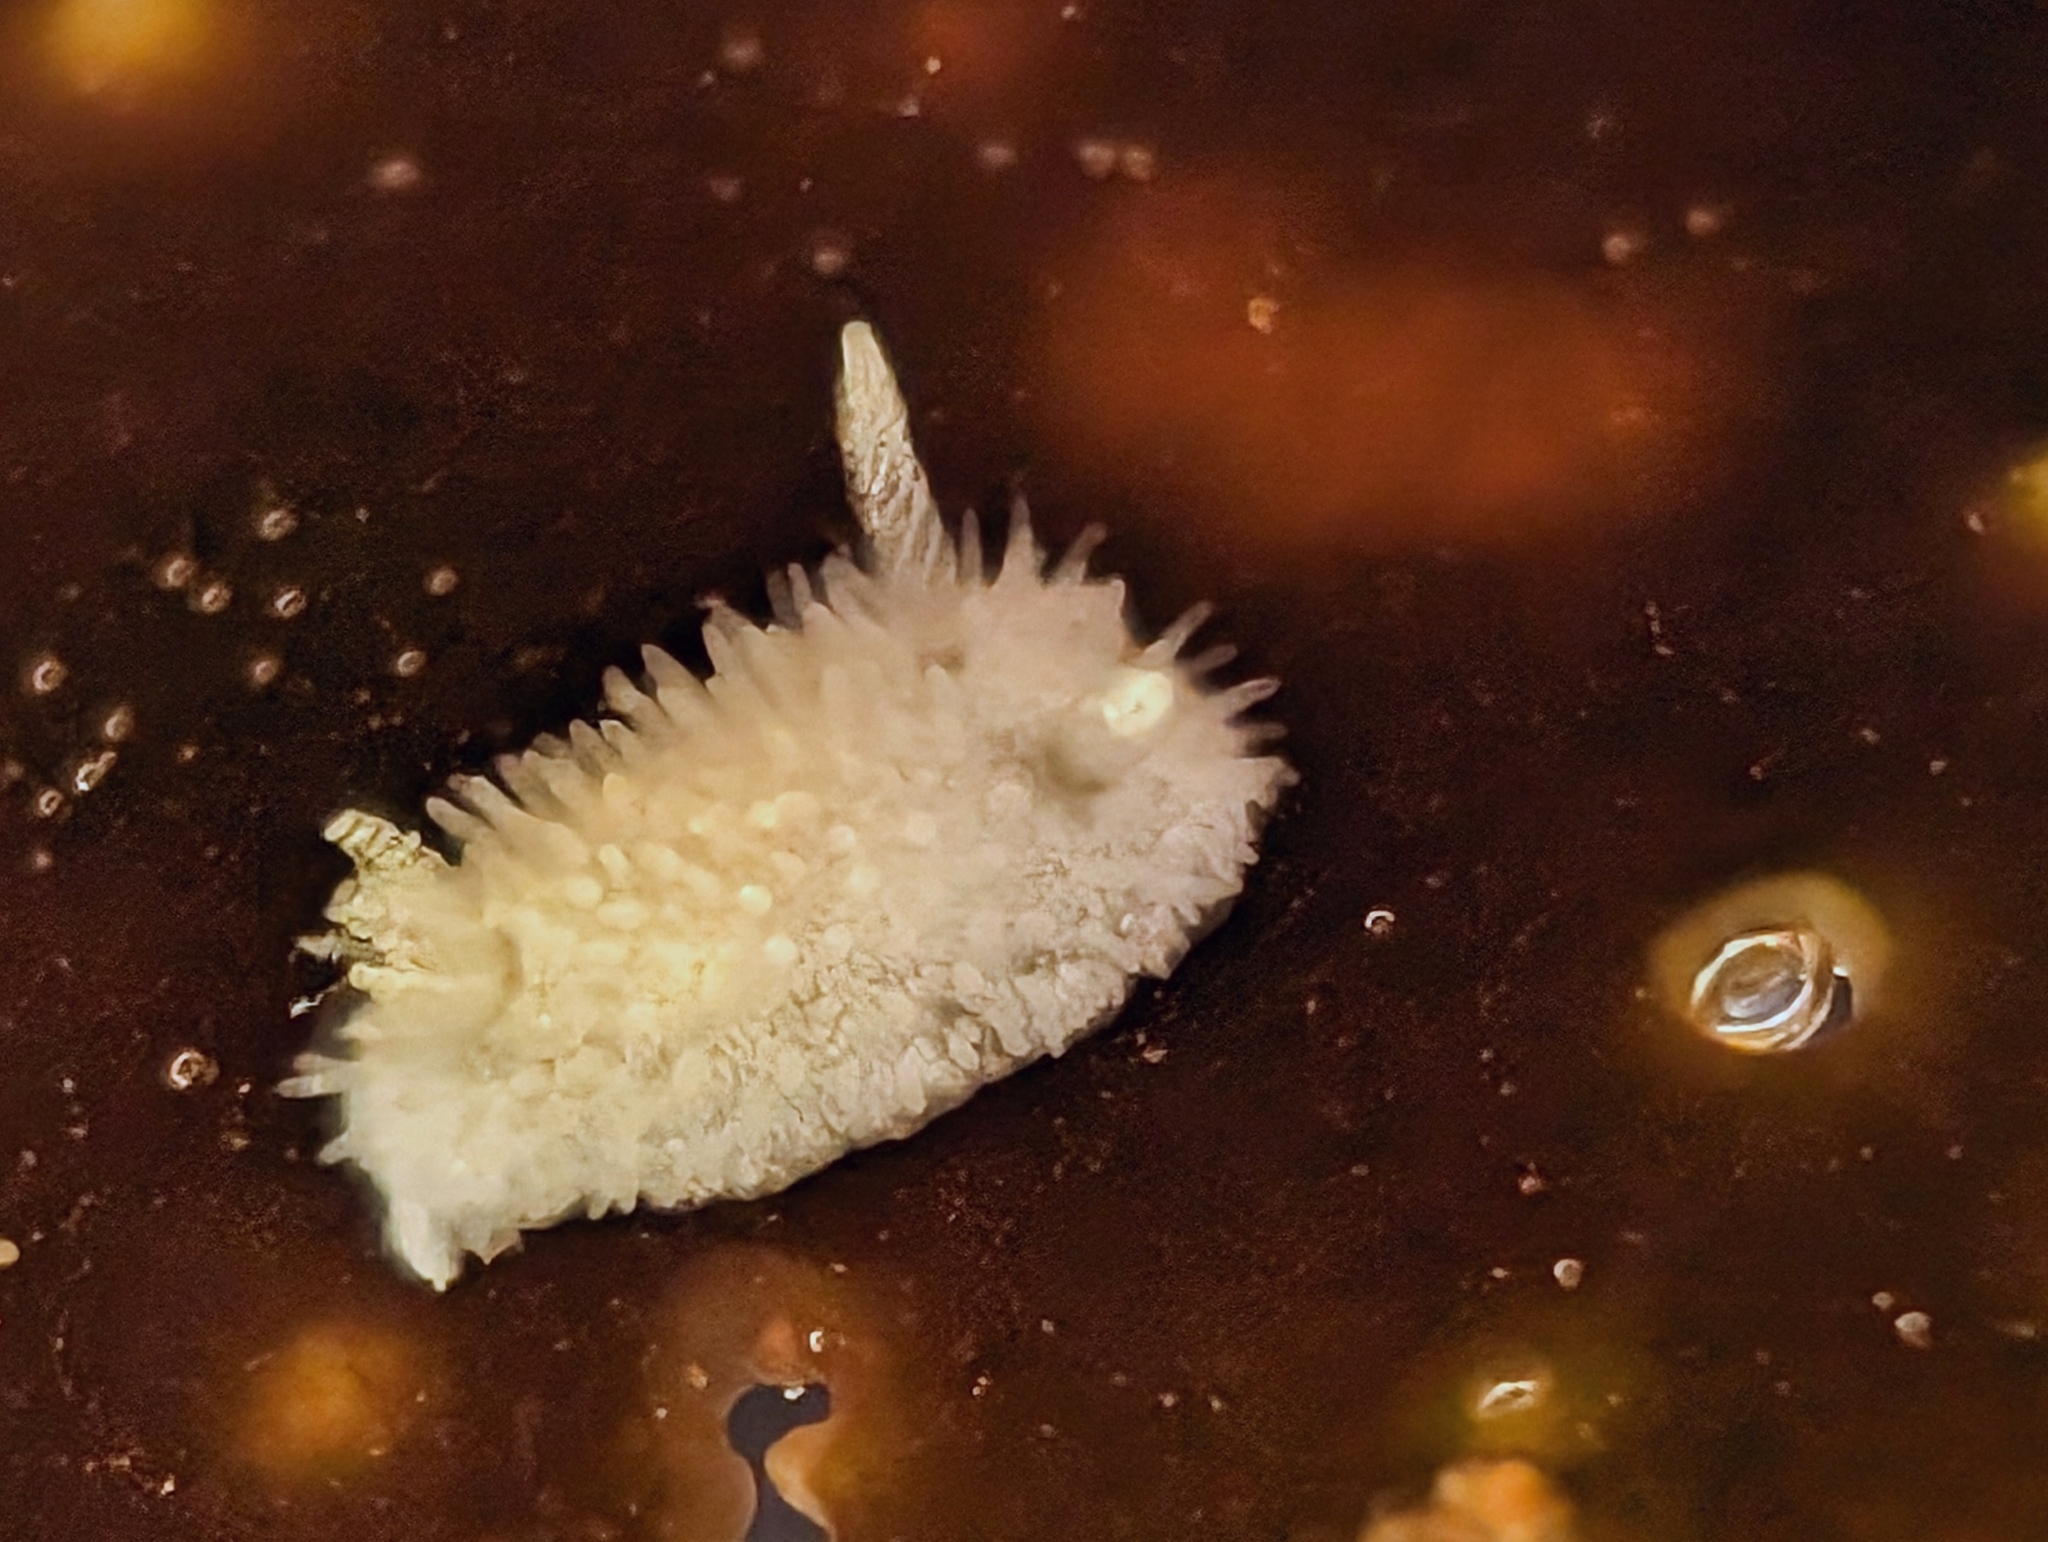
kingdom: Animalia
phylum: Mollusca
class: Gastropoda
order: Nudibranchia
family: Calycidorididae
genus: Diaphorodoris
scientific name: Diaphorodoris lirulatocauda
